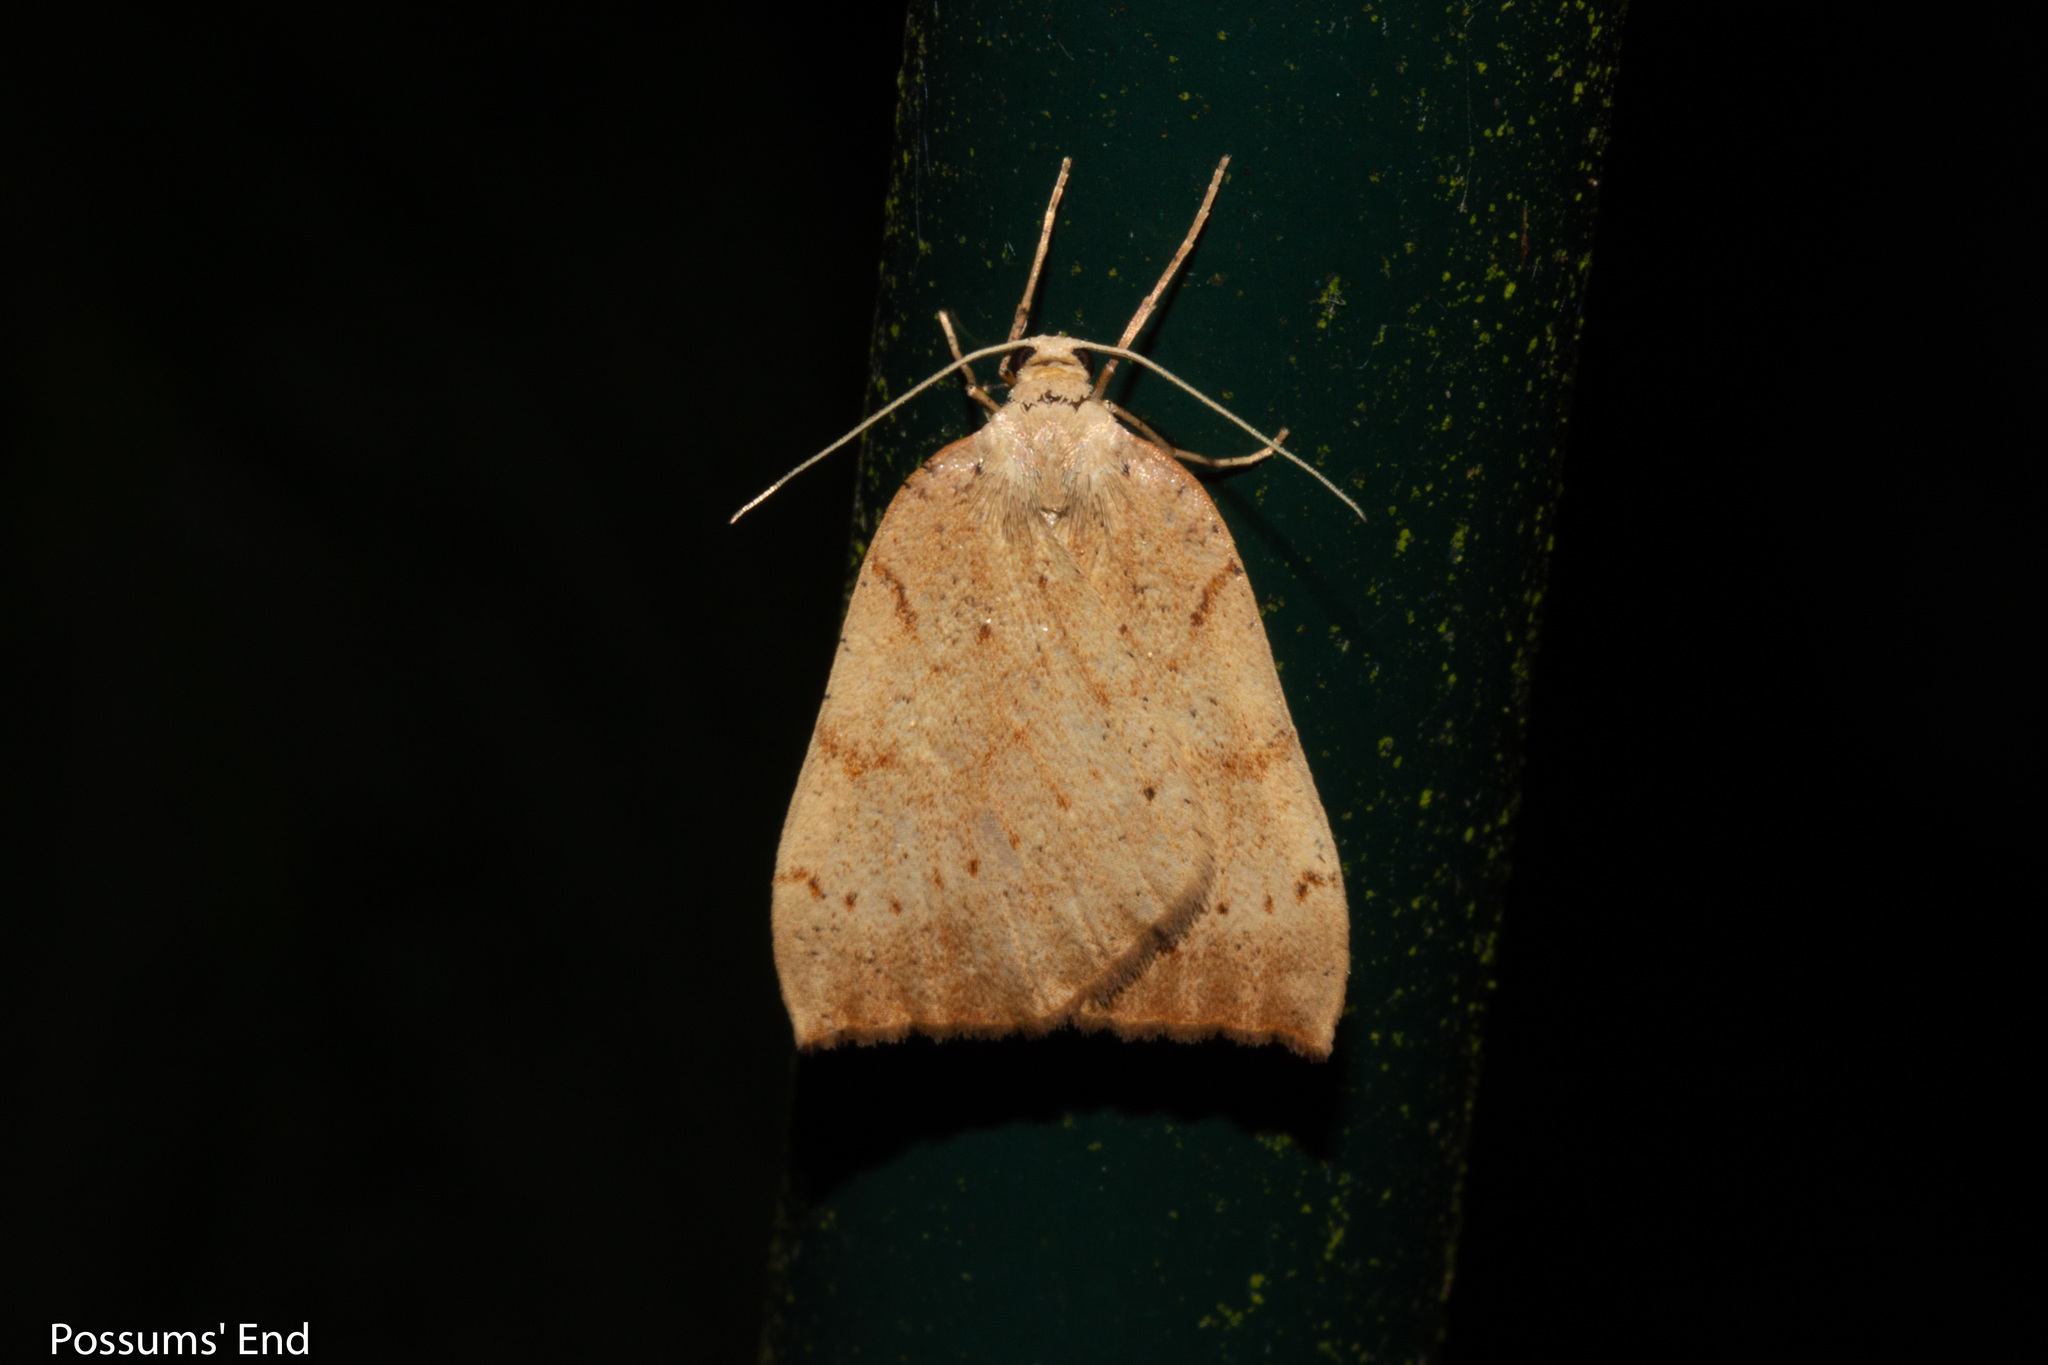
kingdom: Animalia
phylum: Arthropoda
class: Insecta
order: Lepidoptera
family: Geometridae
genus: Sestra
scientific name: Sestra humeraria
